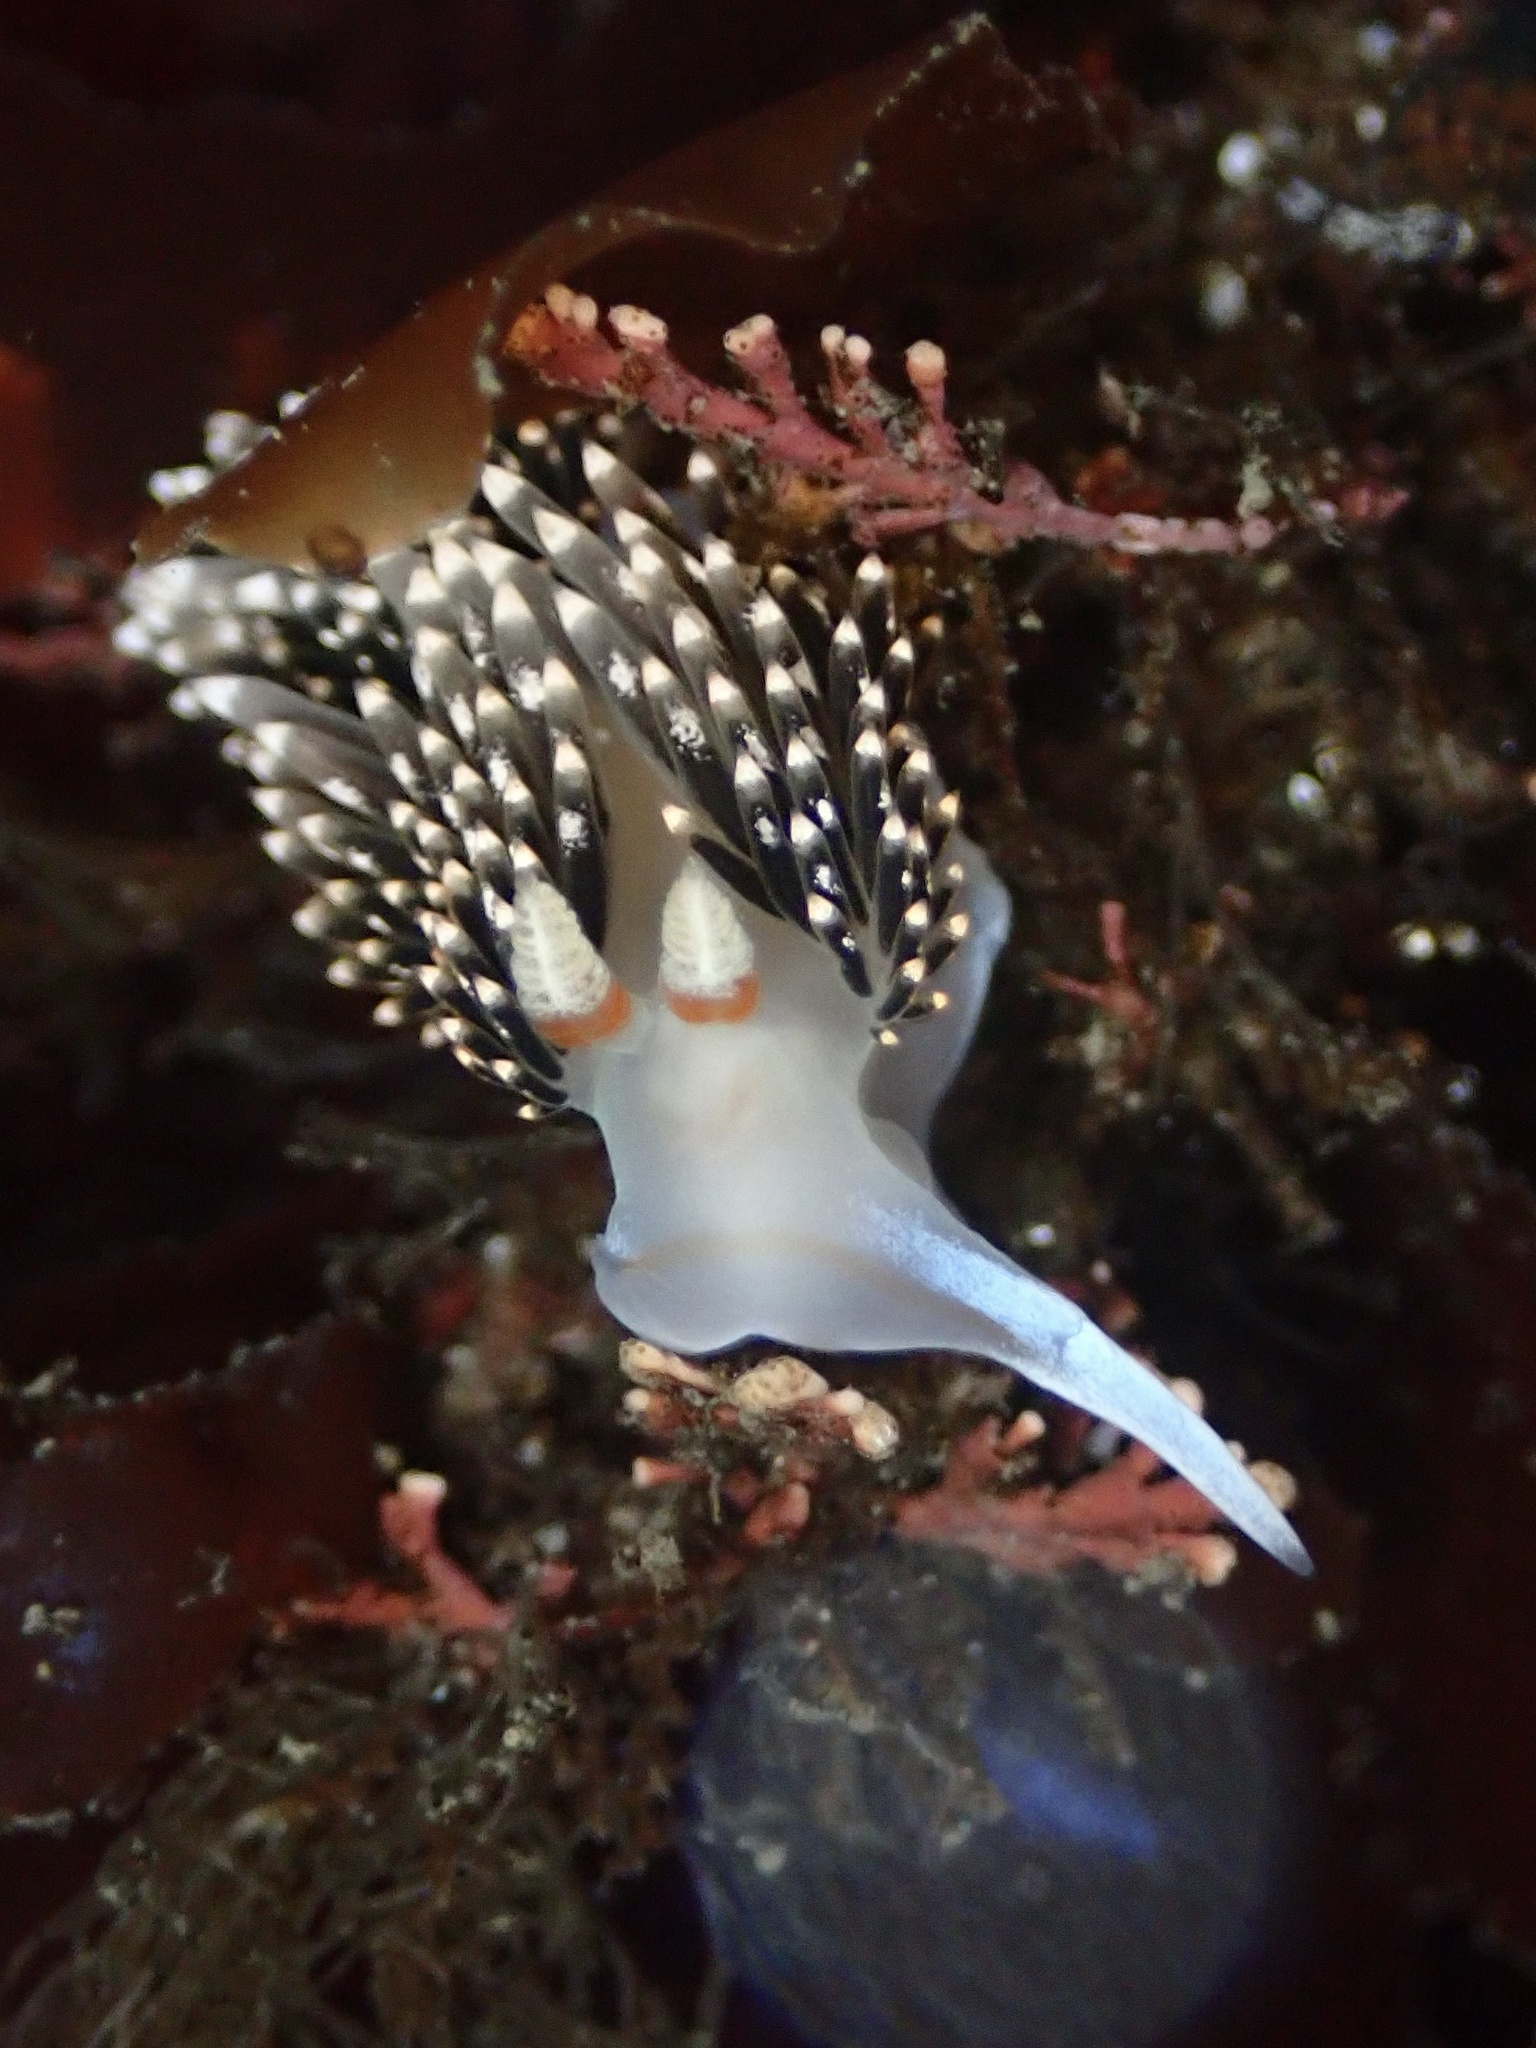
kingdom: Animalia
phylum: Mollusca
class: Gastropoda
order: Nudibranchia
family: Facelinidae
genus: Phidiana
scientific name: Phidiana hiltoni
